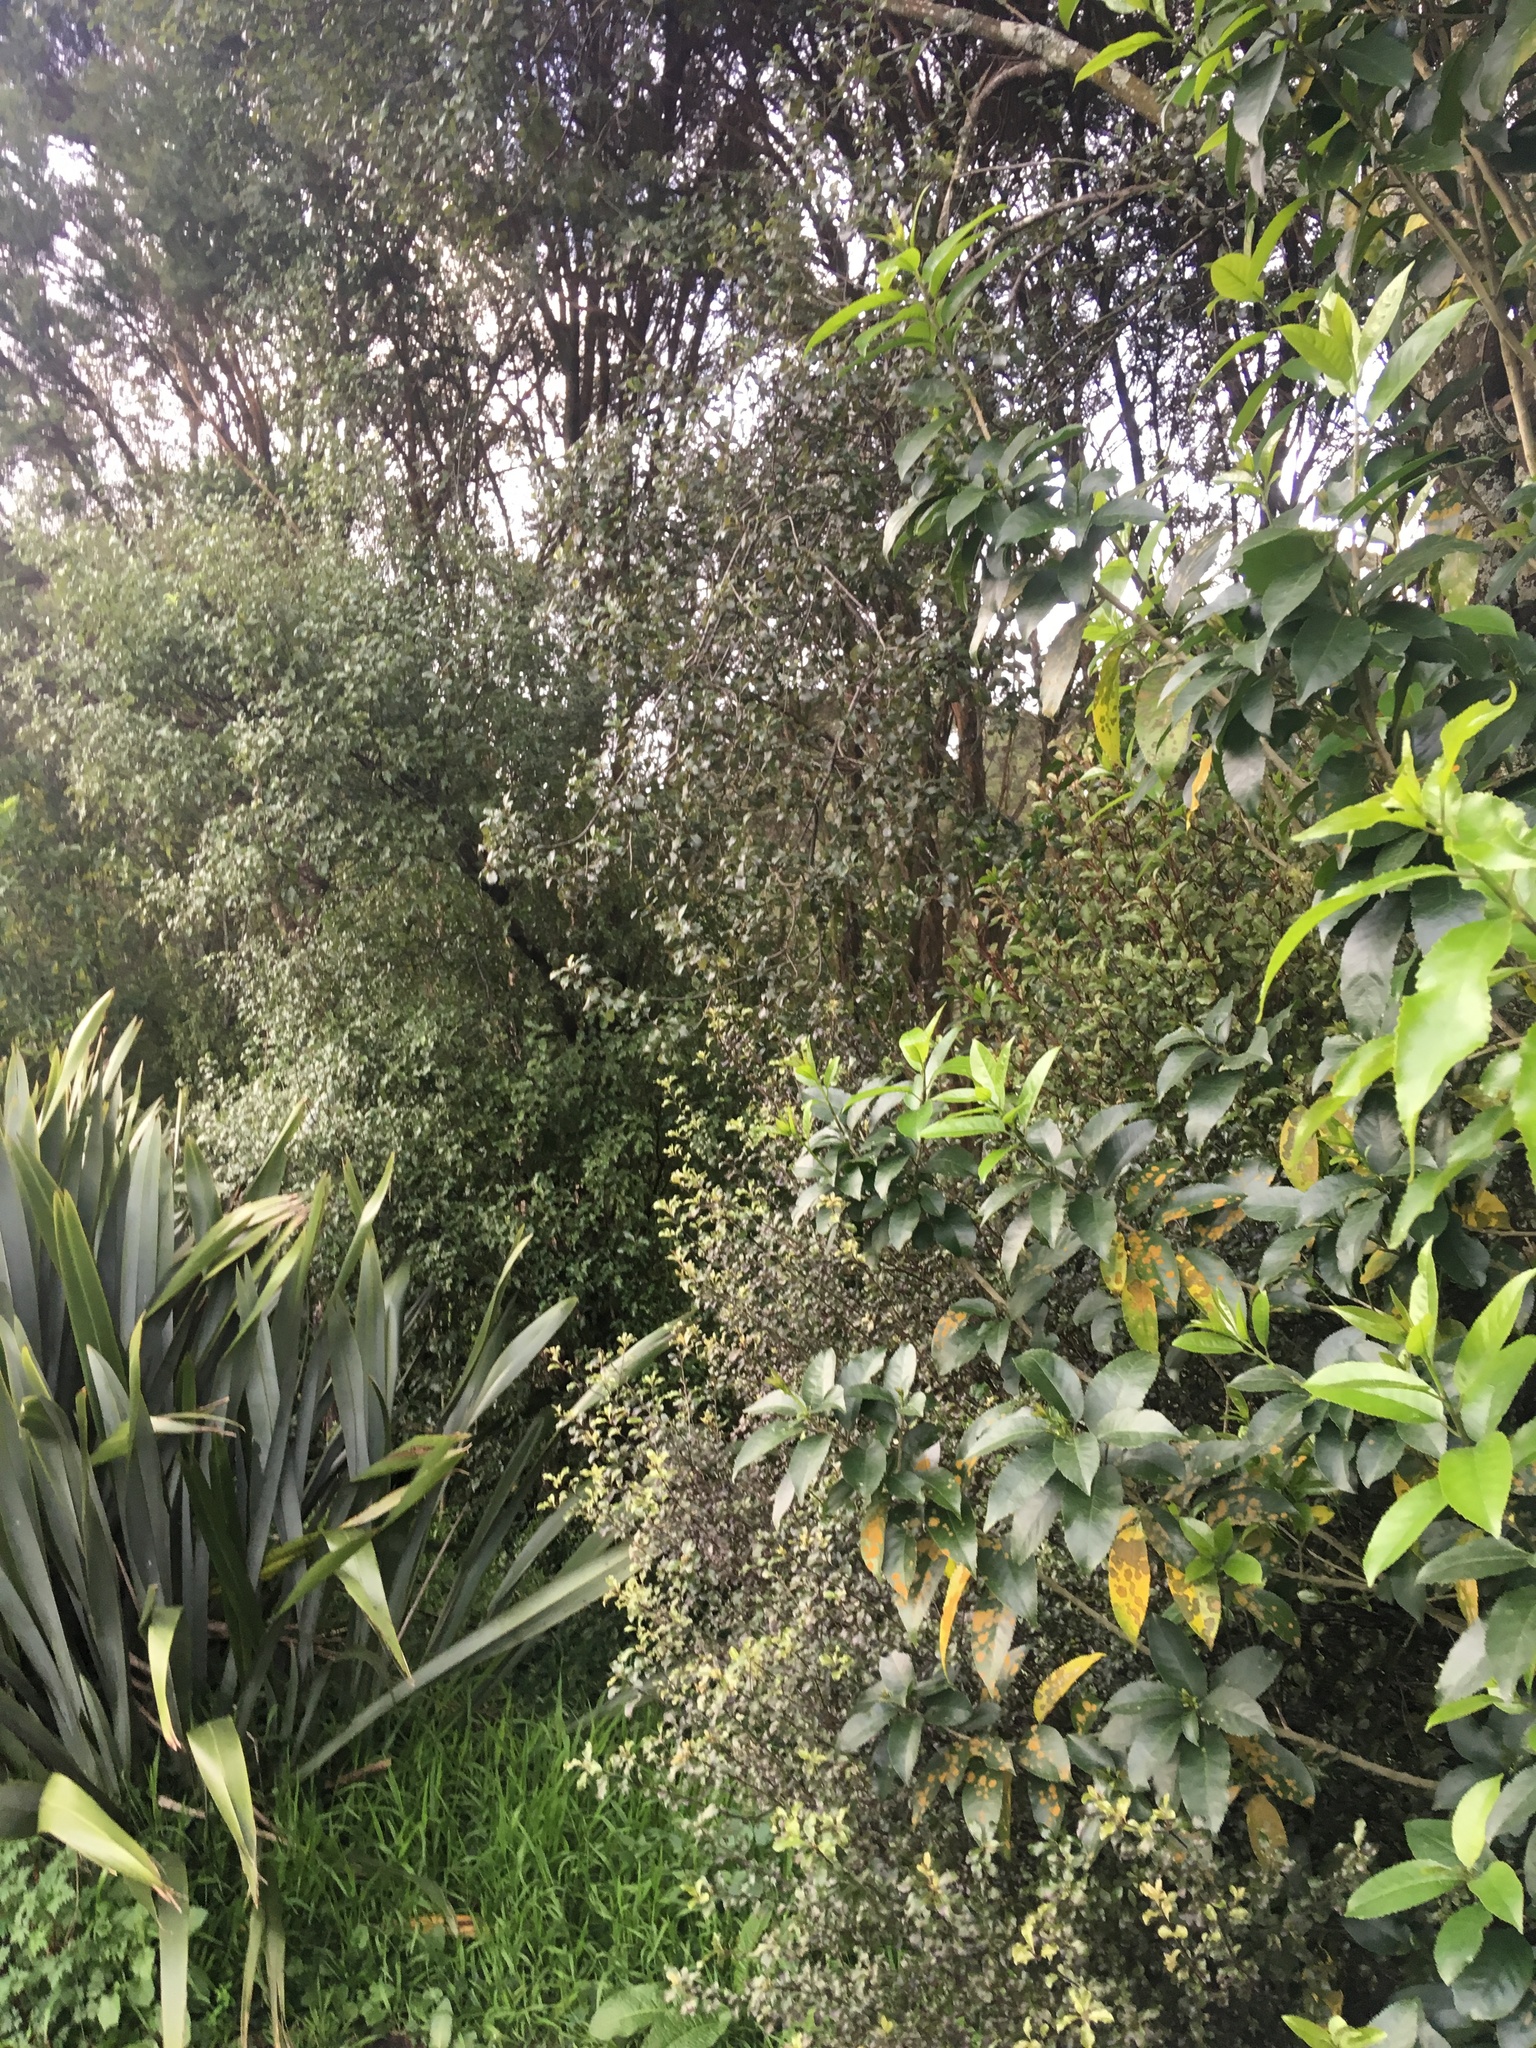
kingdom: Plantae
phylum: Tracheophyta
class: Magnoliopsida
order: Ericales
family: Primulaceae
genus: Myrsine
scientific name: Myrsine australis
